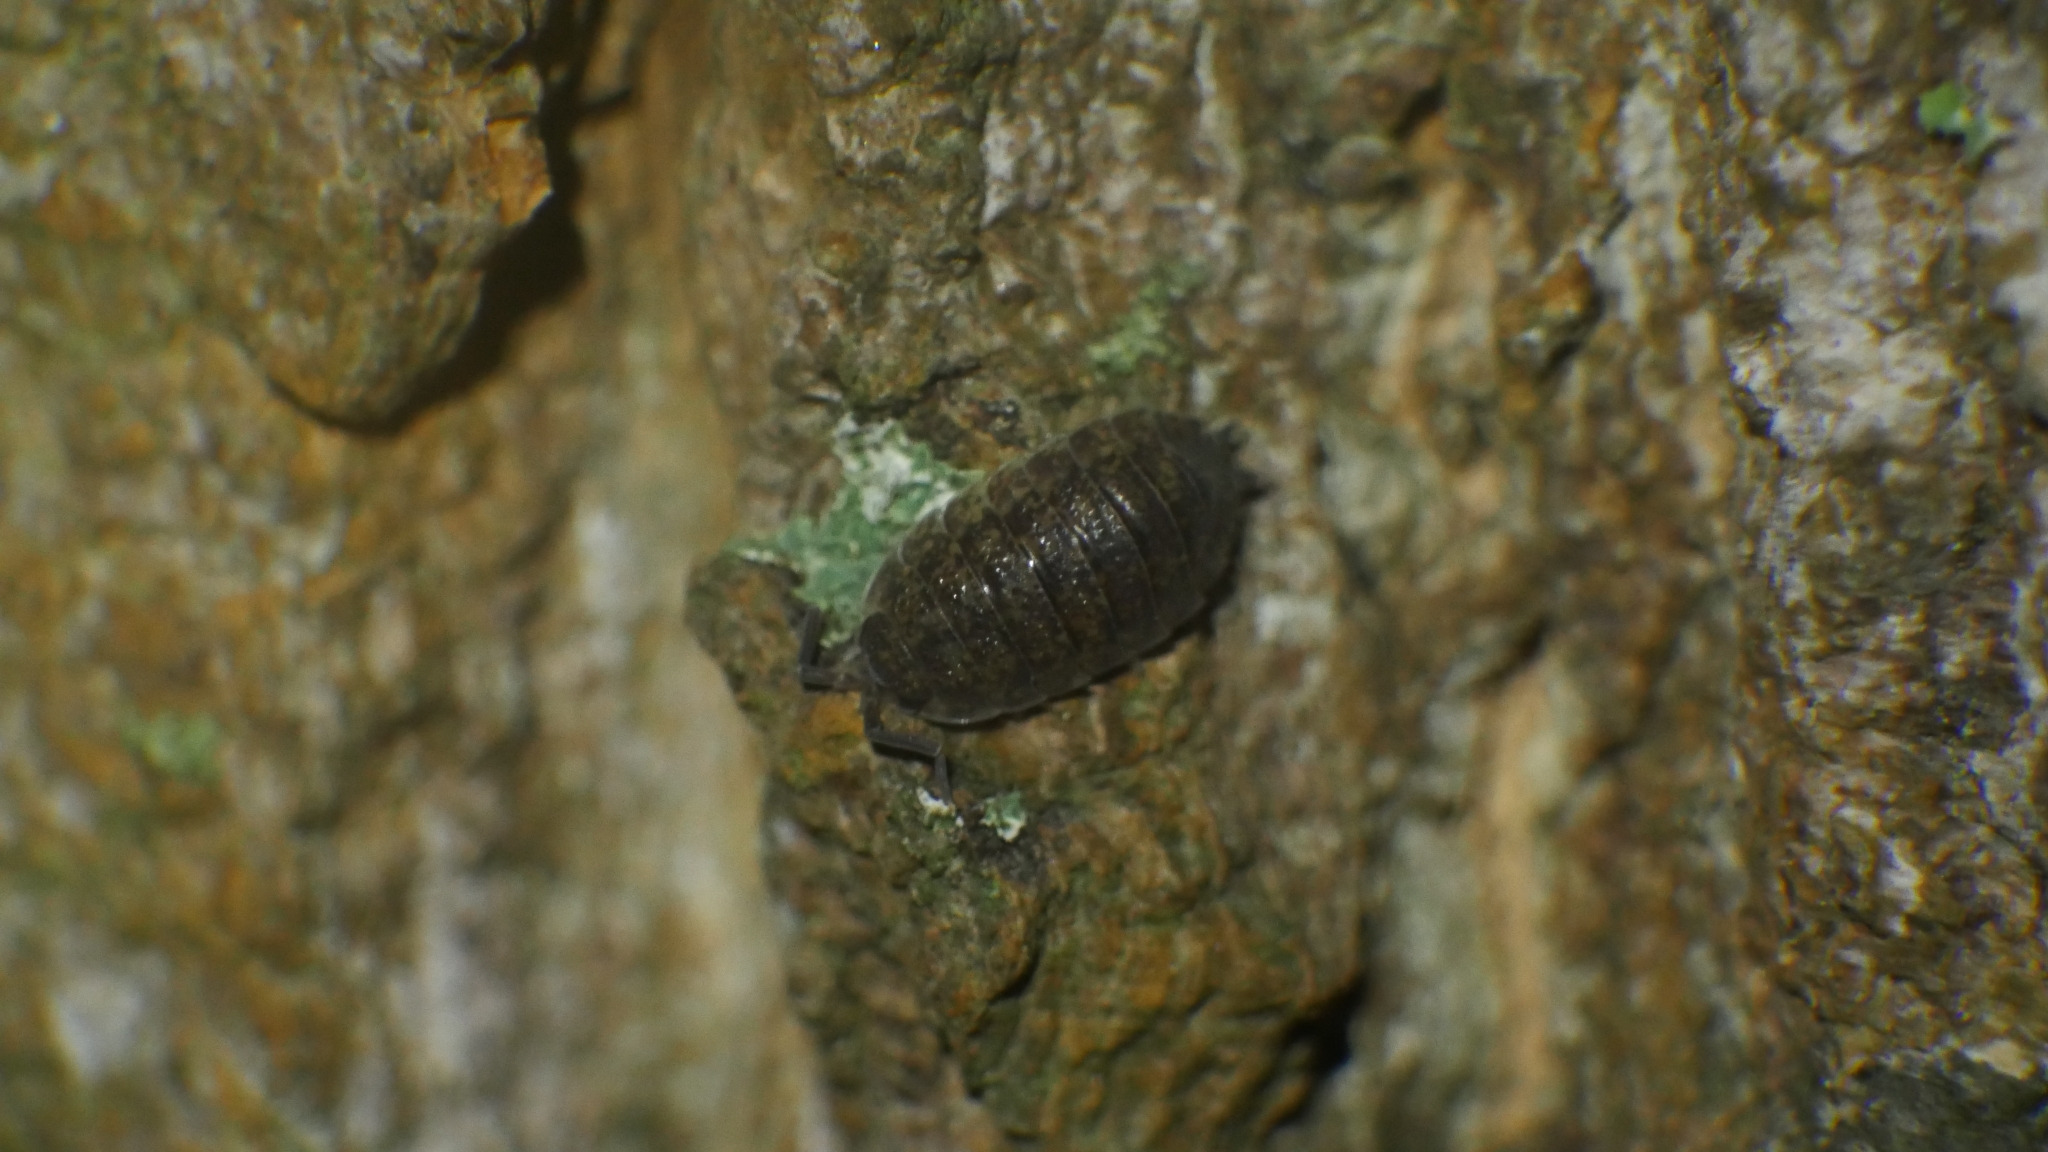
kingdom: Animalia
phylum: Arthropoda
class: Malacostraca
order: Isopoda
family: Porcellionidae
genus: Porcellio
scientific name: Porcellio scaber
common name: Common rough woodlouse
